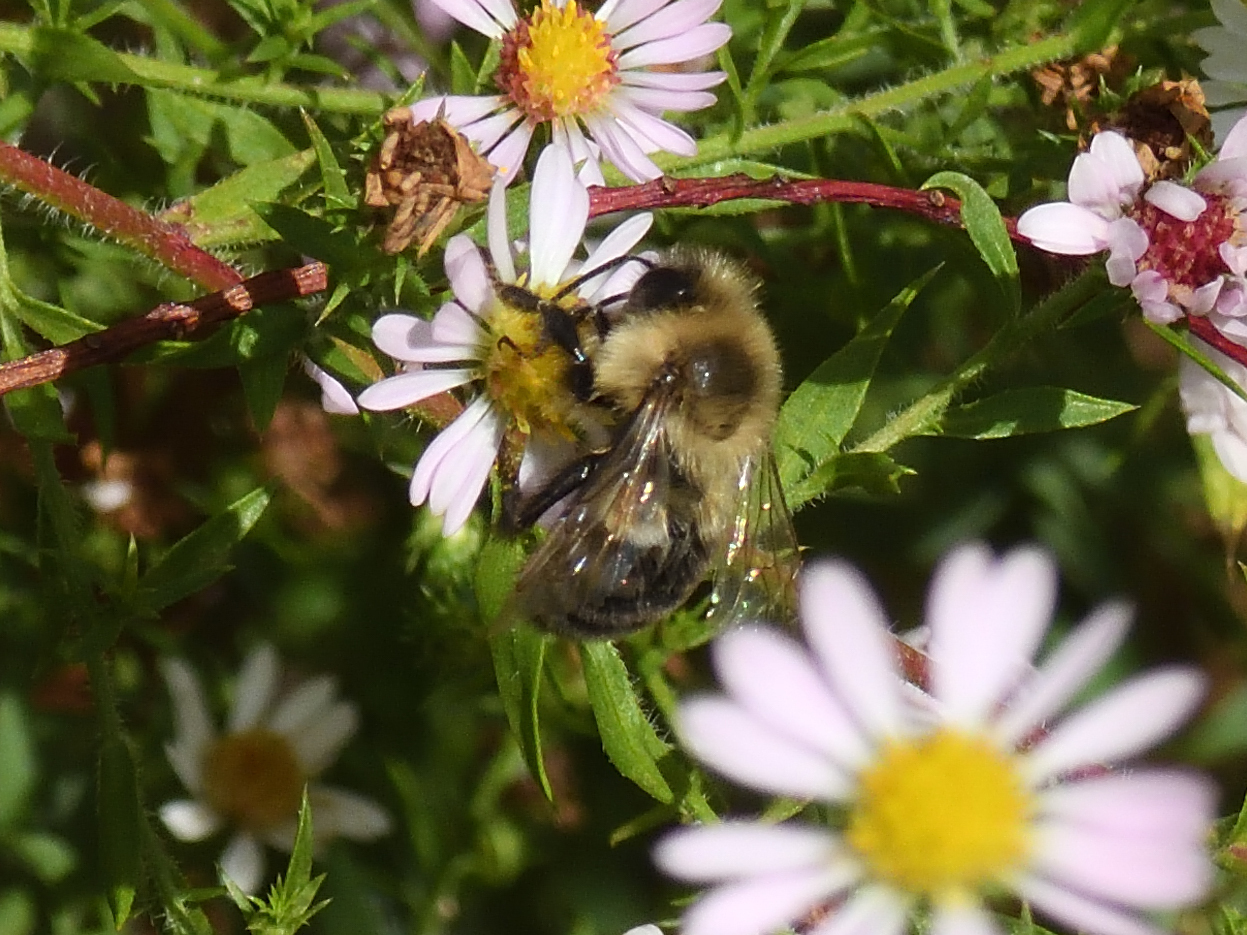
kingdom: Animalia
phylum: Arthropoda
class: Insecta
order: Hymenoptera
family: Apidae
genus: Bombus
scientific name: Bombus impatiens
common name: Common eastern bumble bee
